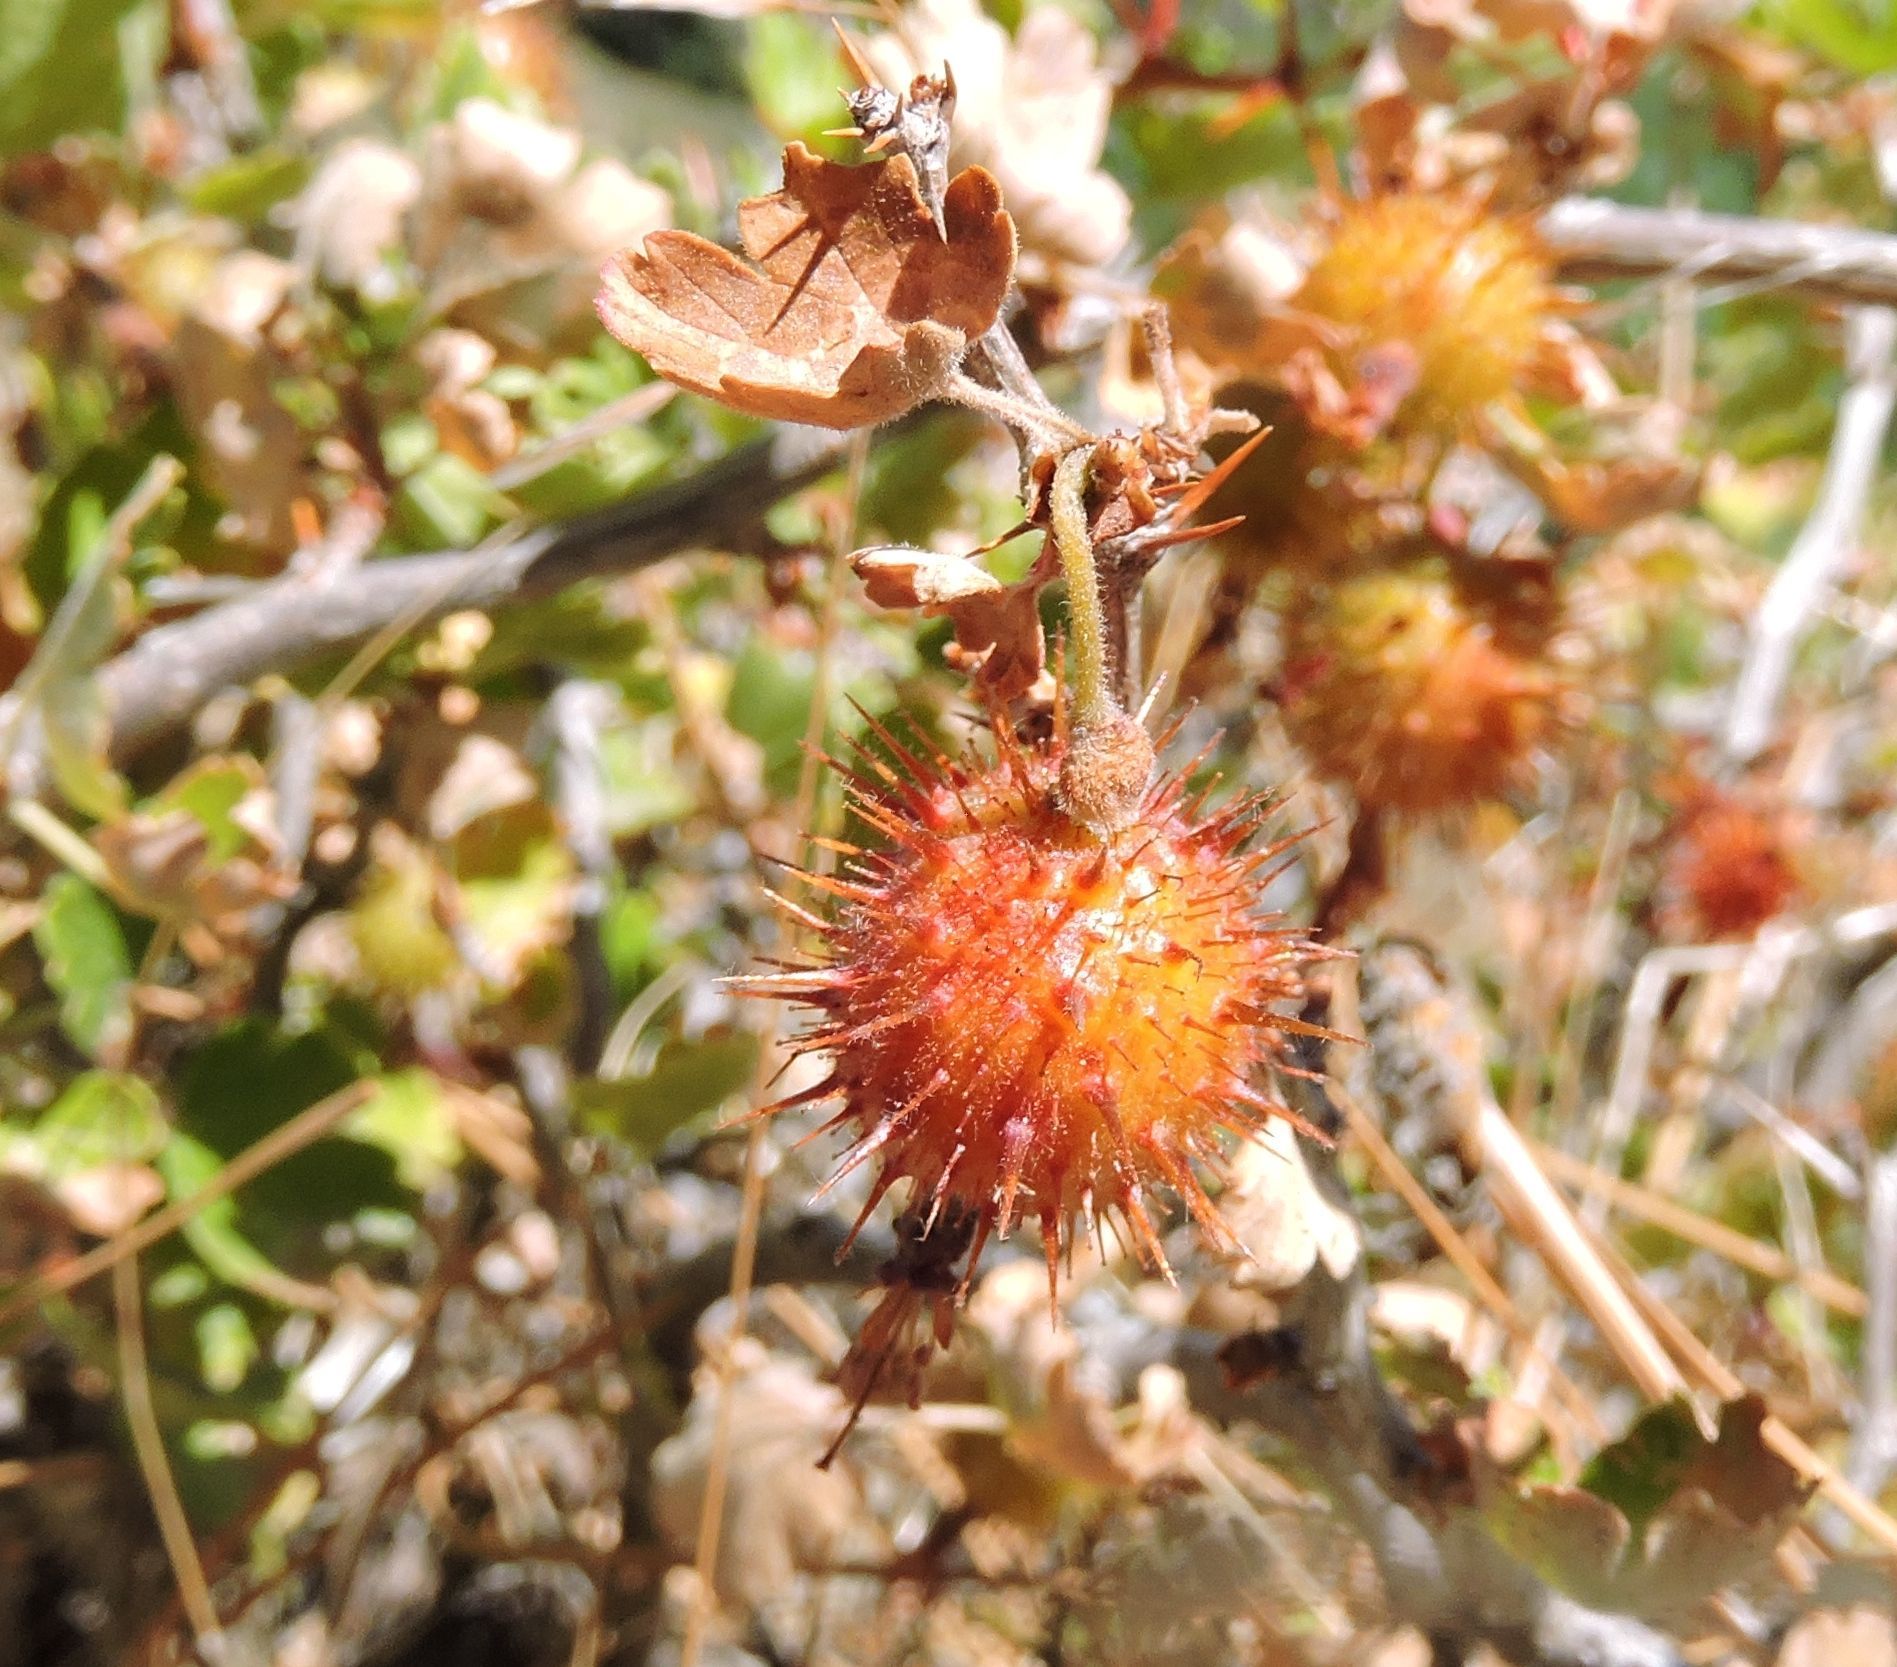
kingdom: Plantae
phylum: Tracheophyta
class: Magnoliopsida
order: Saxifragales
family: Grossulariaceae
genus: Ribes
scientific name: Ribes roezlii
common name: Sierra gooseberry
